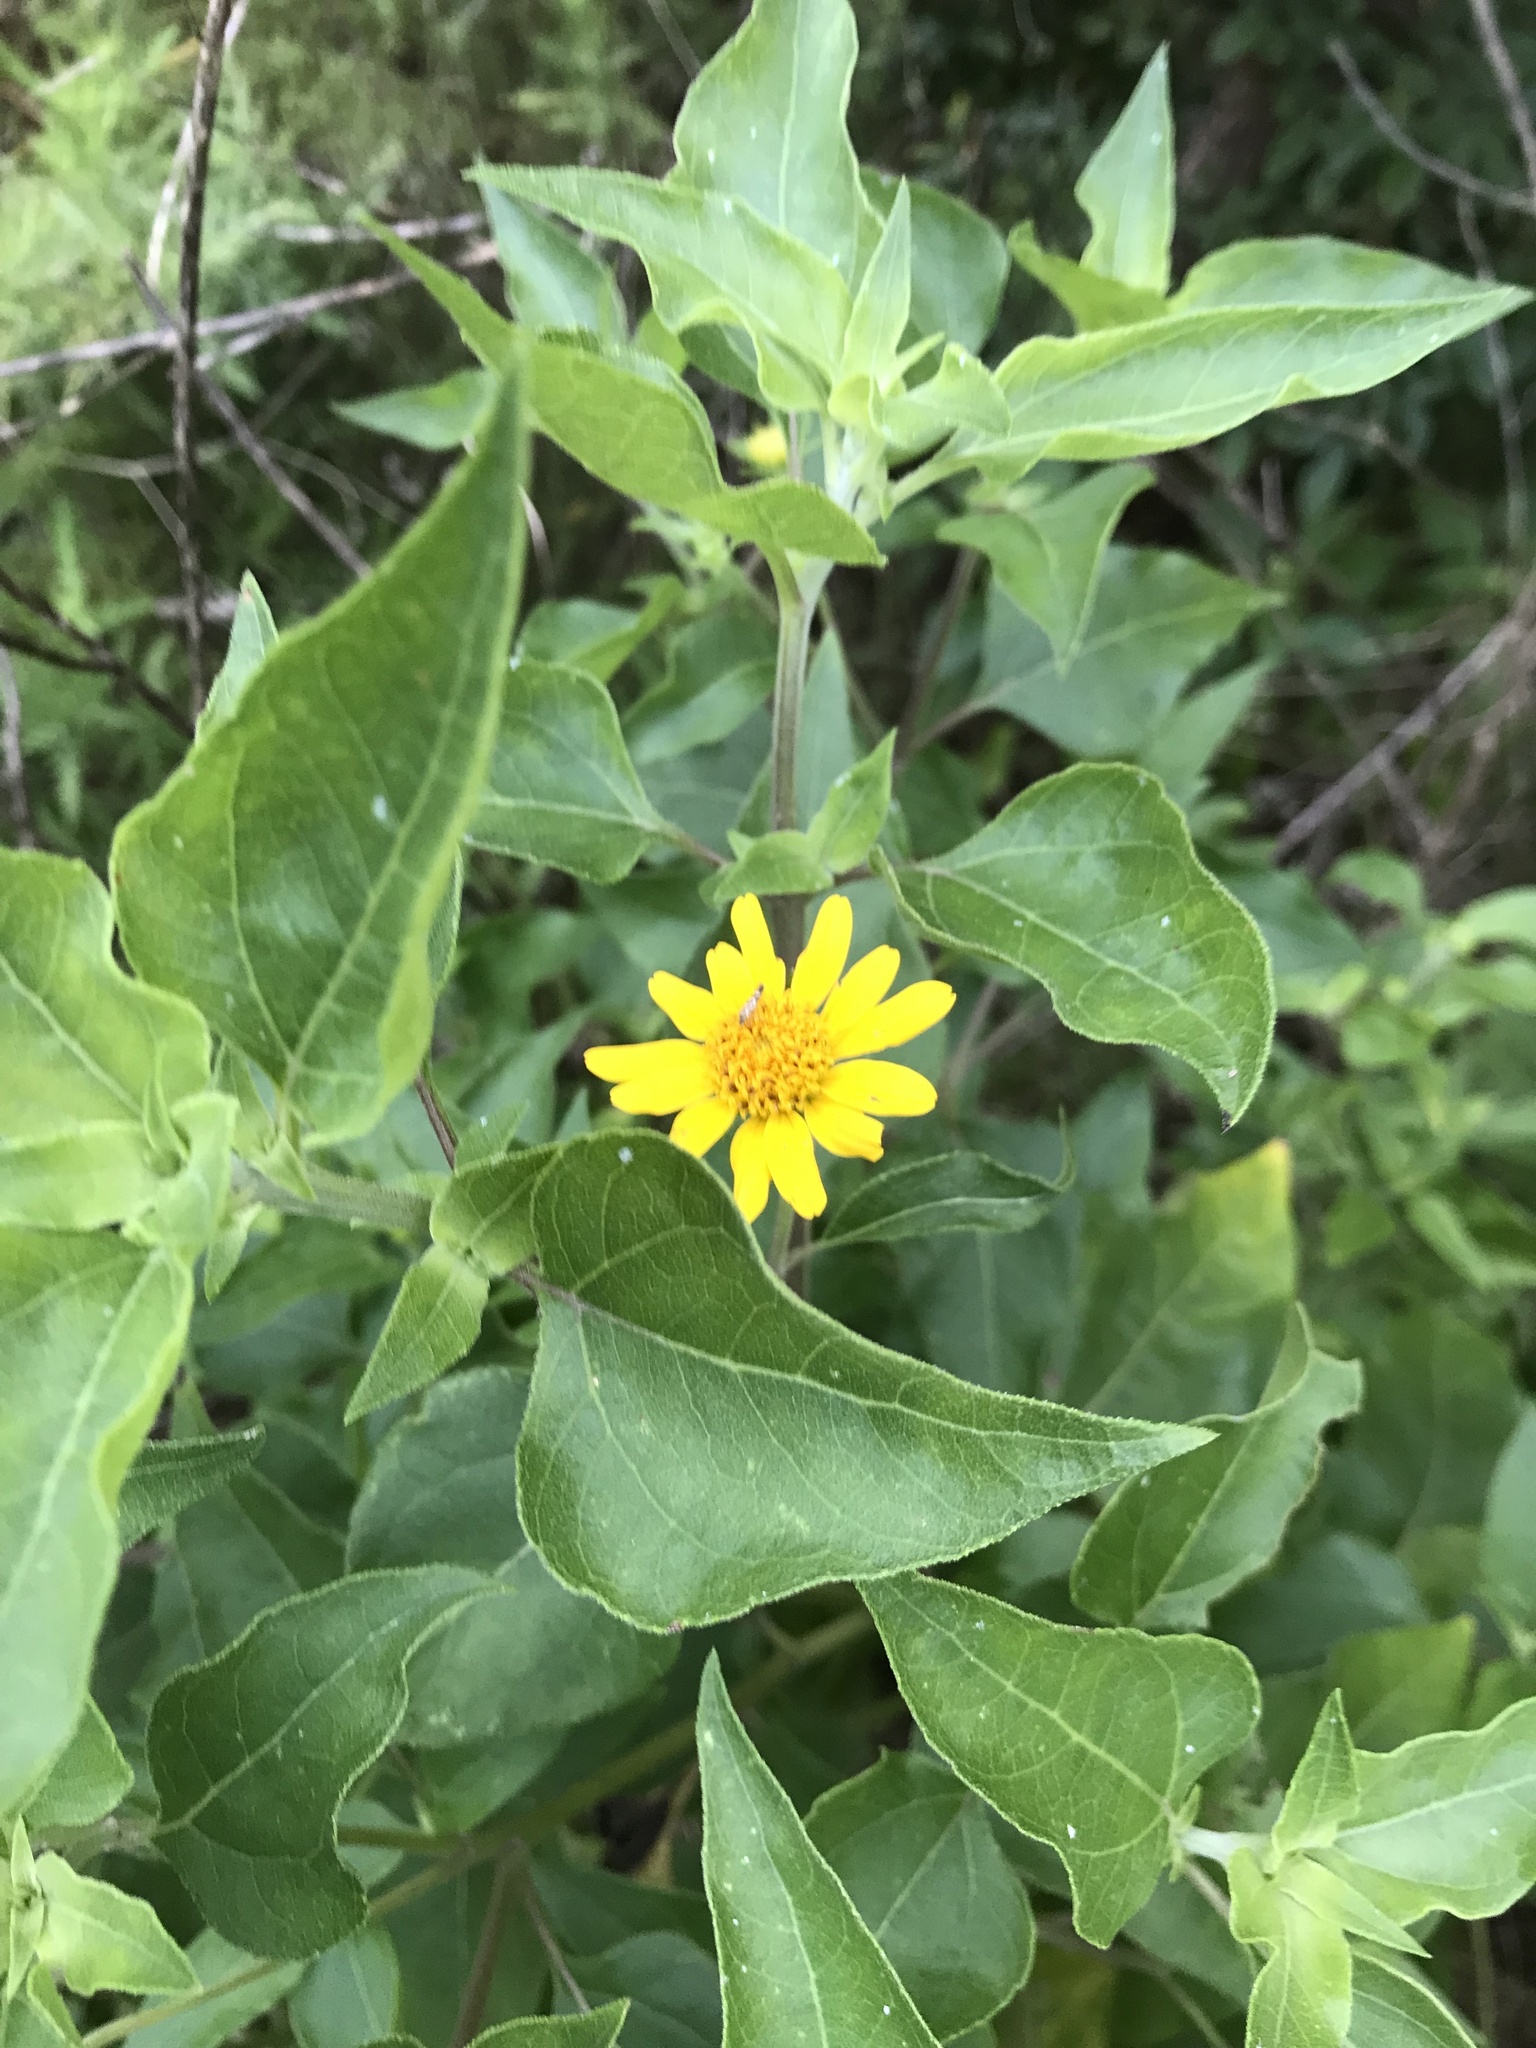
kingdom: Plantae
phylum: Tracheophyta
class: Magnoliopsida
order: Asterales
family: Asteraceae
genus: Viguiera
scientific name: Viguiera dentata
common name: Toothleaf
